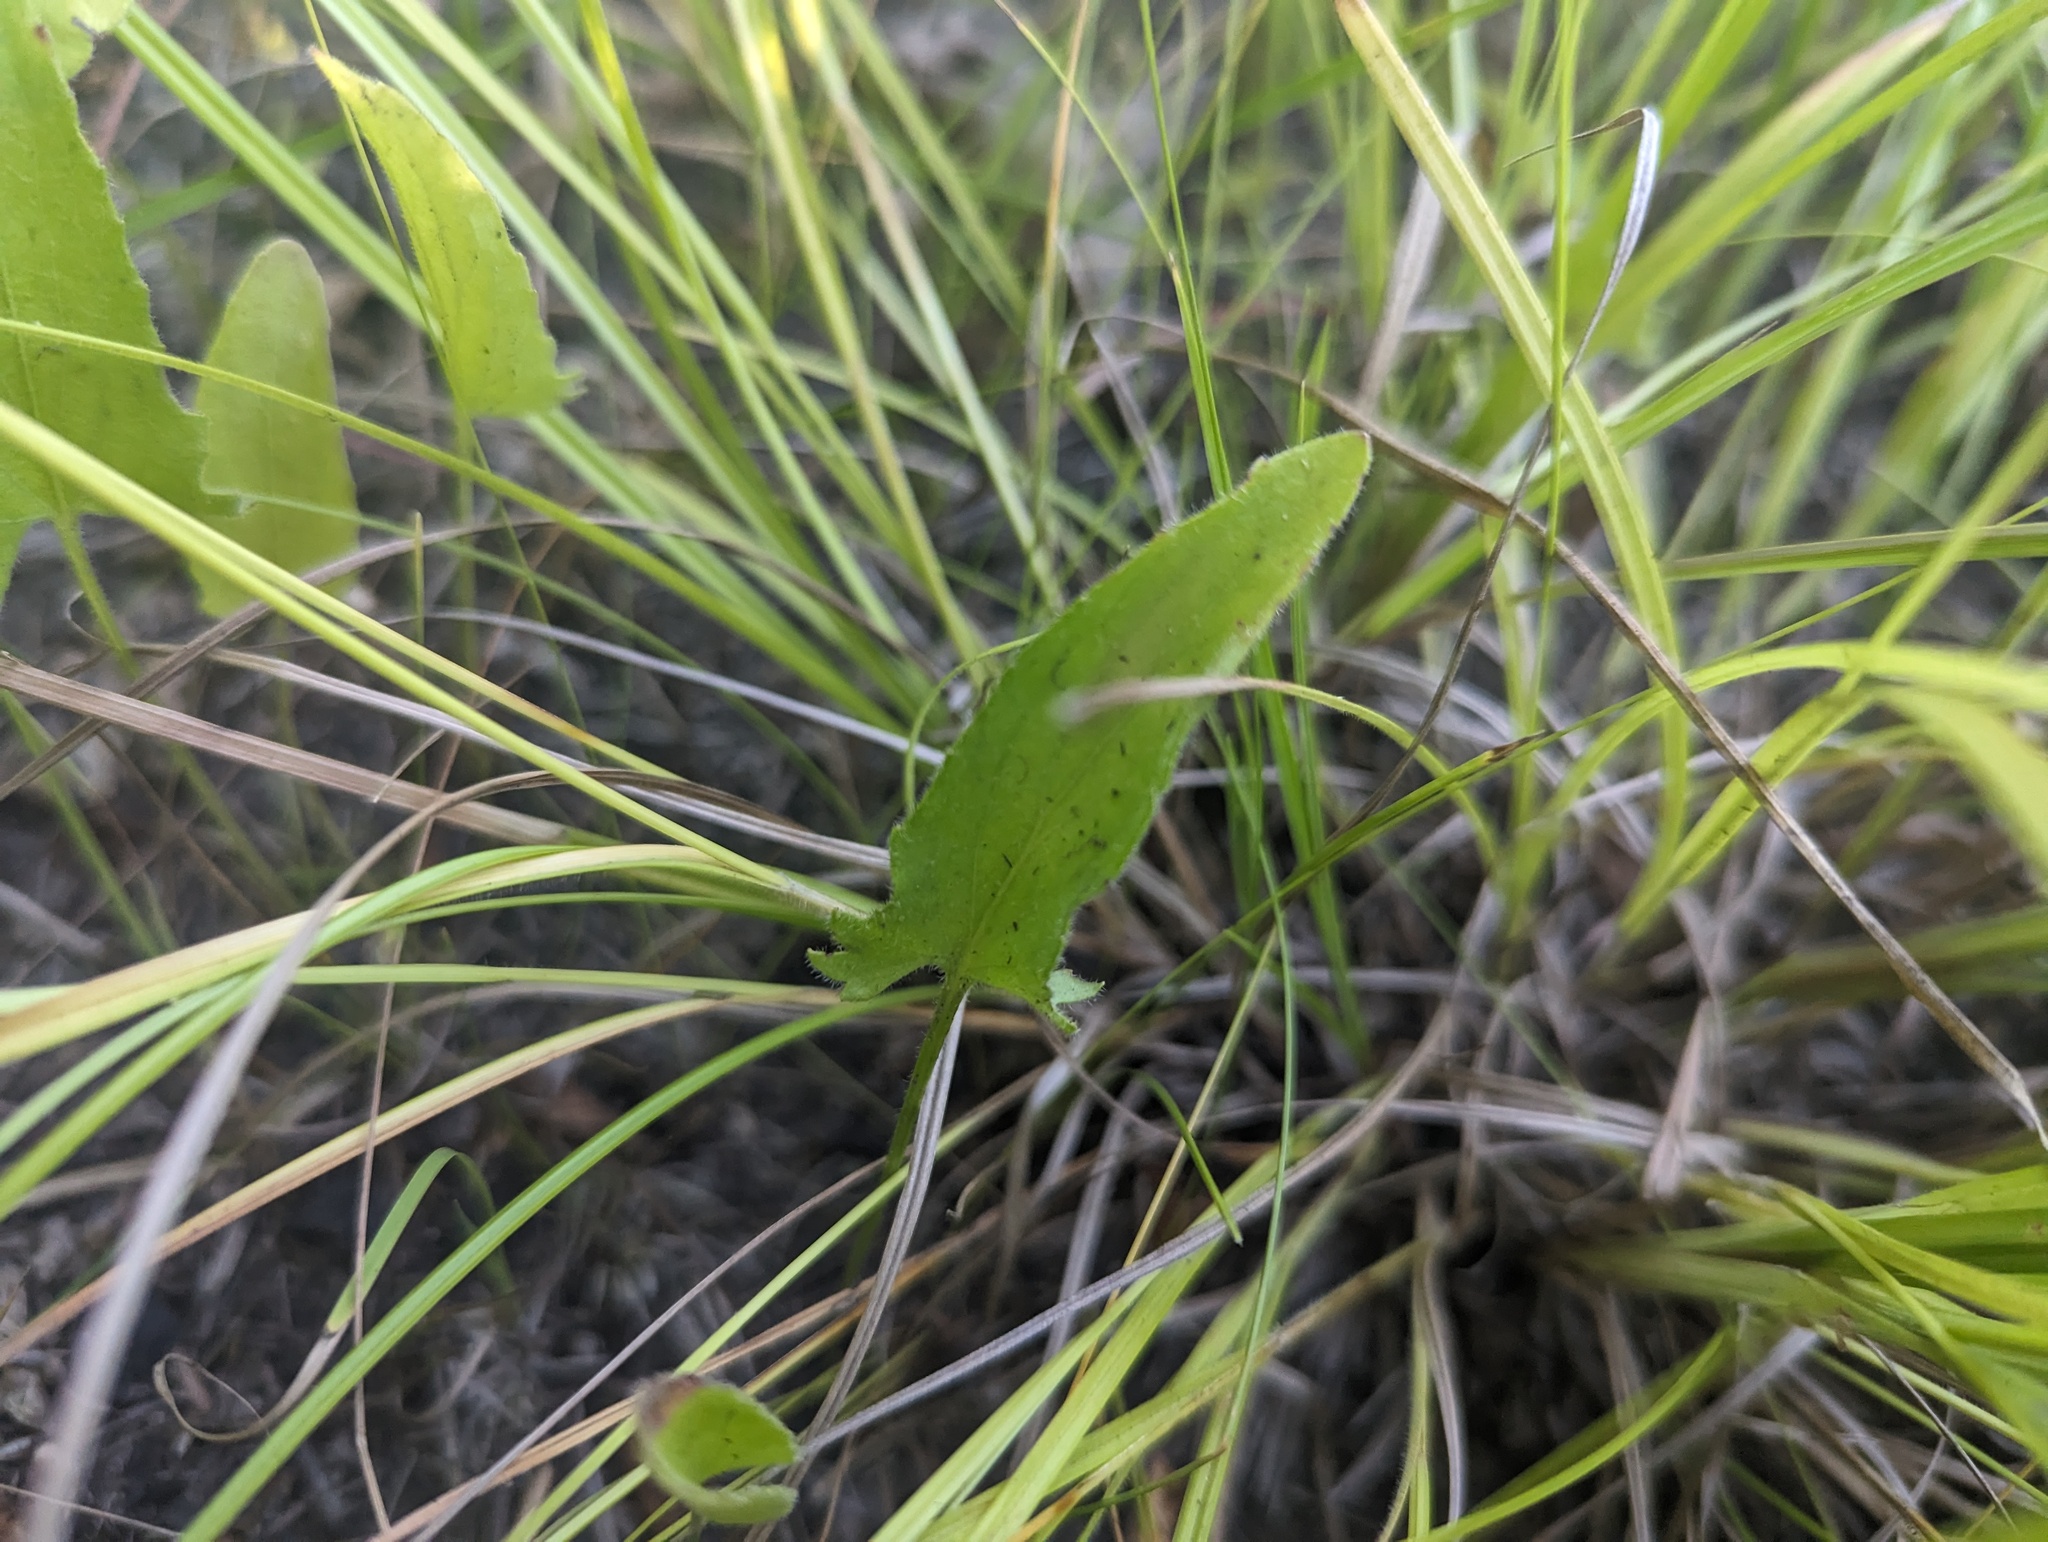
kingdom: Plantae
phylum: Tracheophyta
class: Magnoliopsida
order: Malpighiales
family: Violaceae
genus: Viola
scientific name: Viola sagittata
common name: Arrowhead violet
